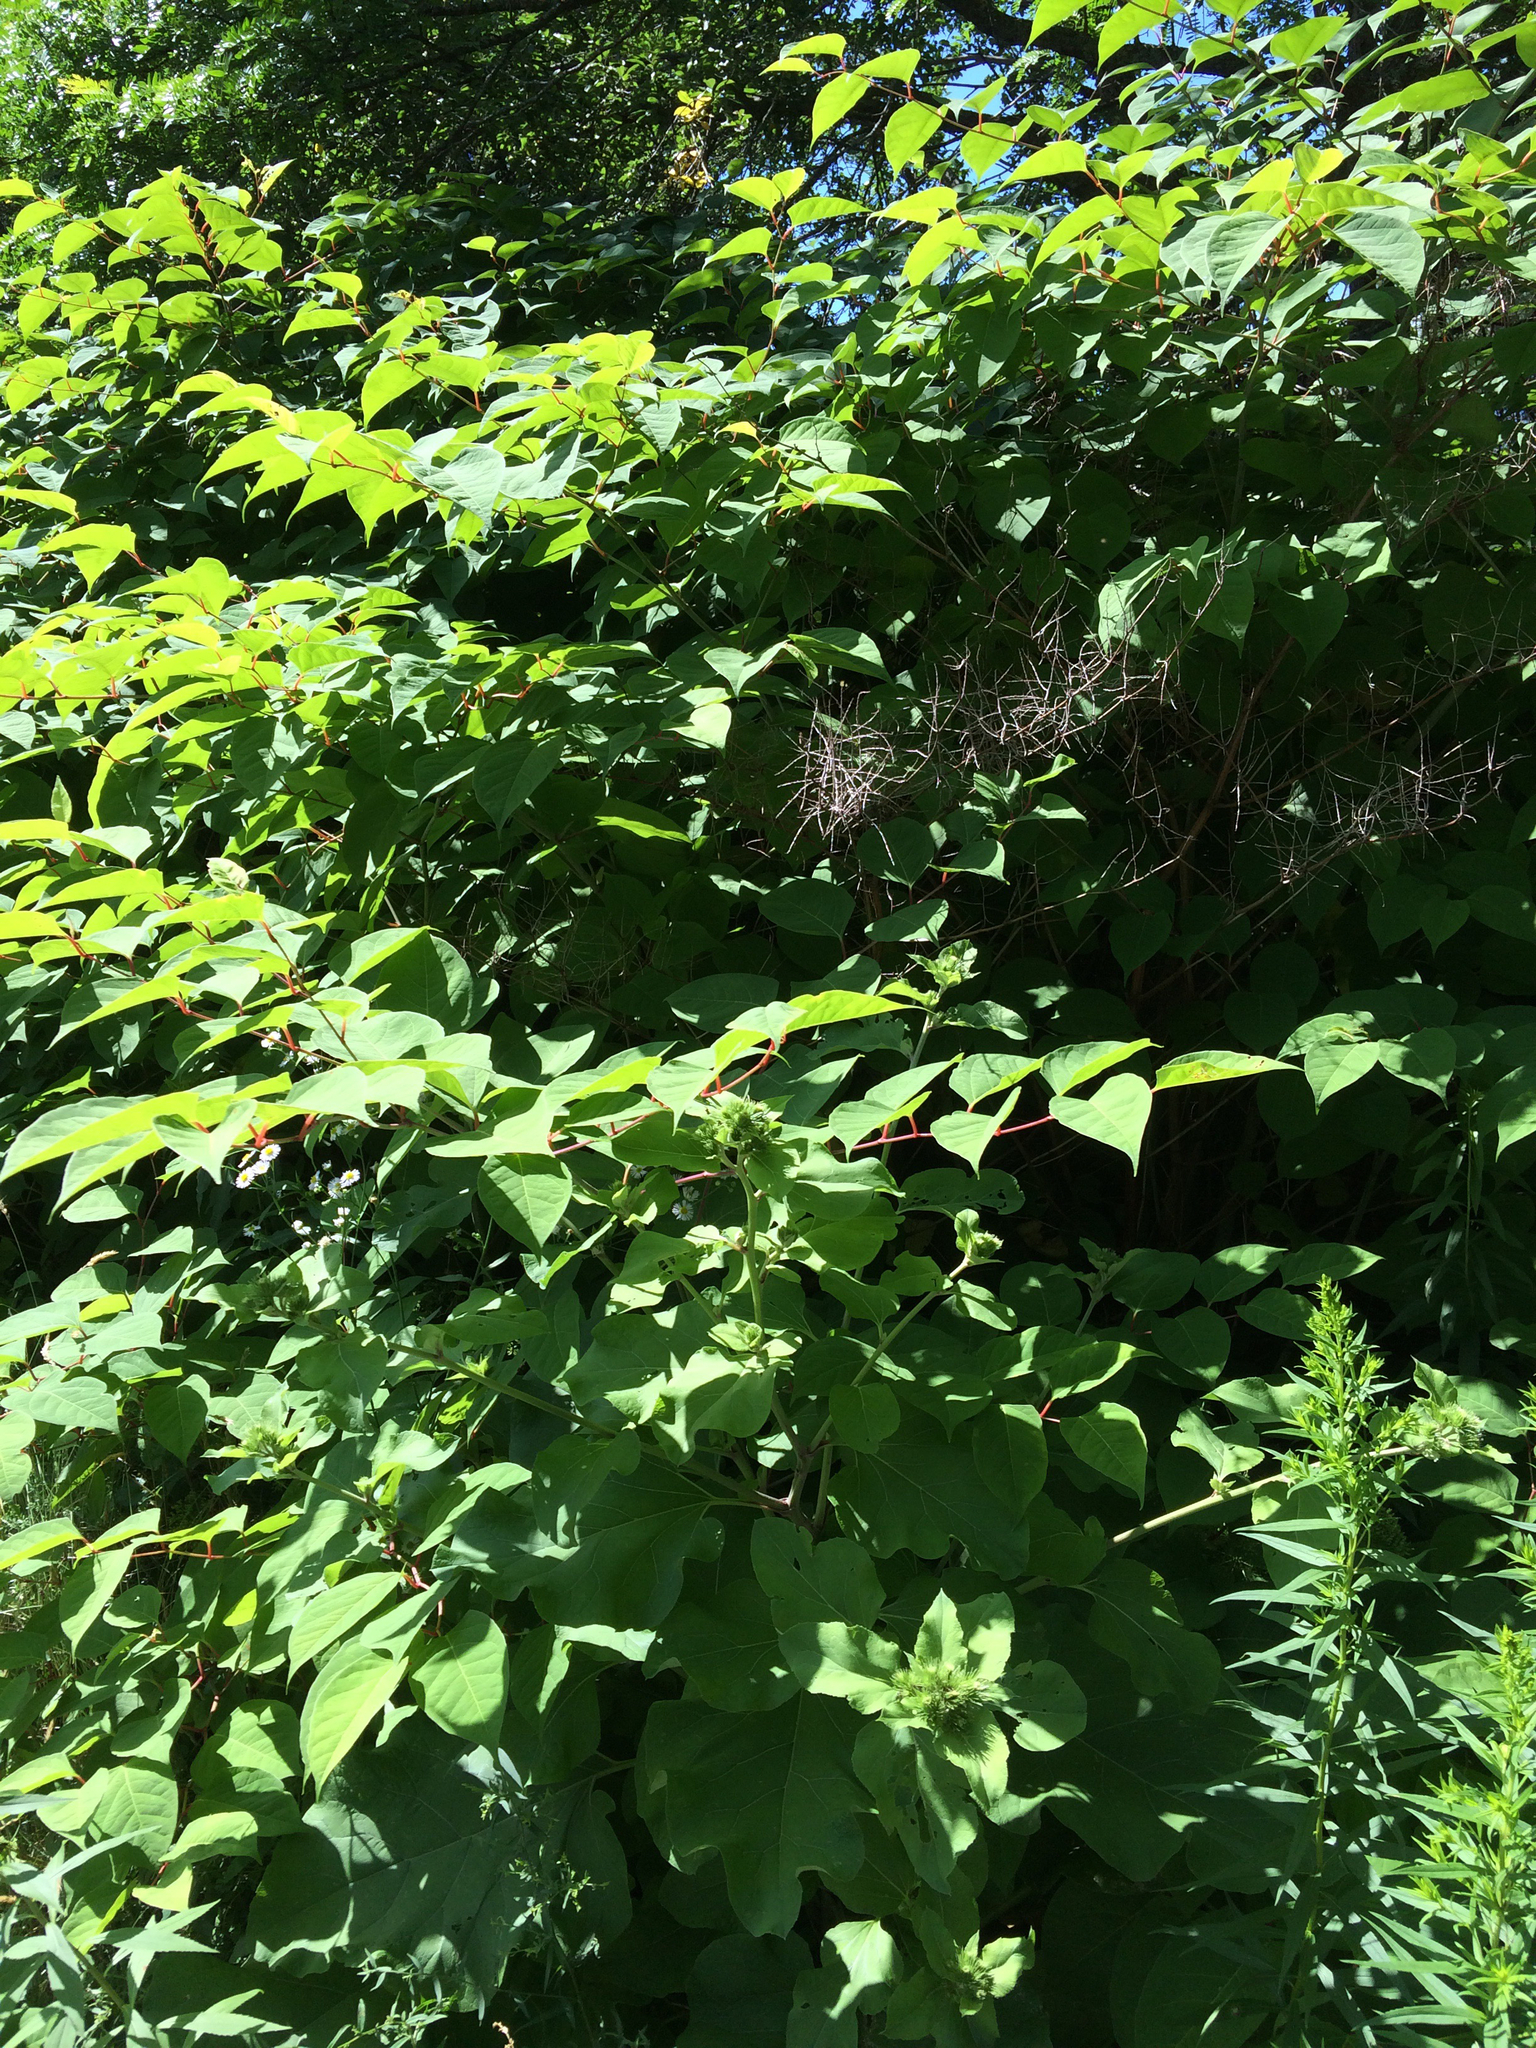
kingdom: Plantae
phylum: Tracheophyta
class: Magnoliopsida
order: Caryophyllales
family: Polygonaceae
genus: Reynoutria
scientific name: Reynoutria japonica
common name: Japanese knotweed
